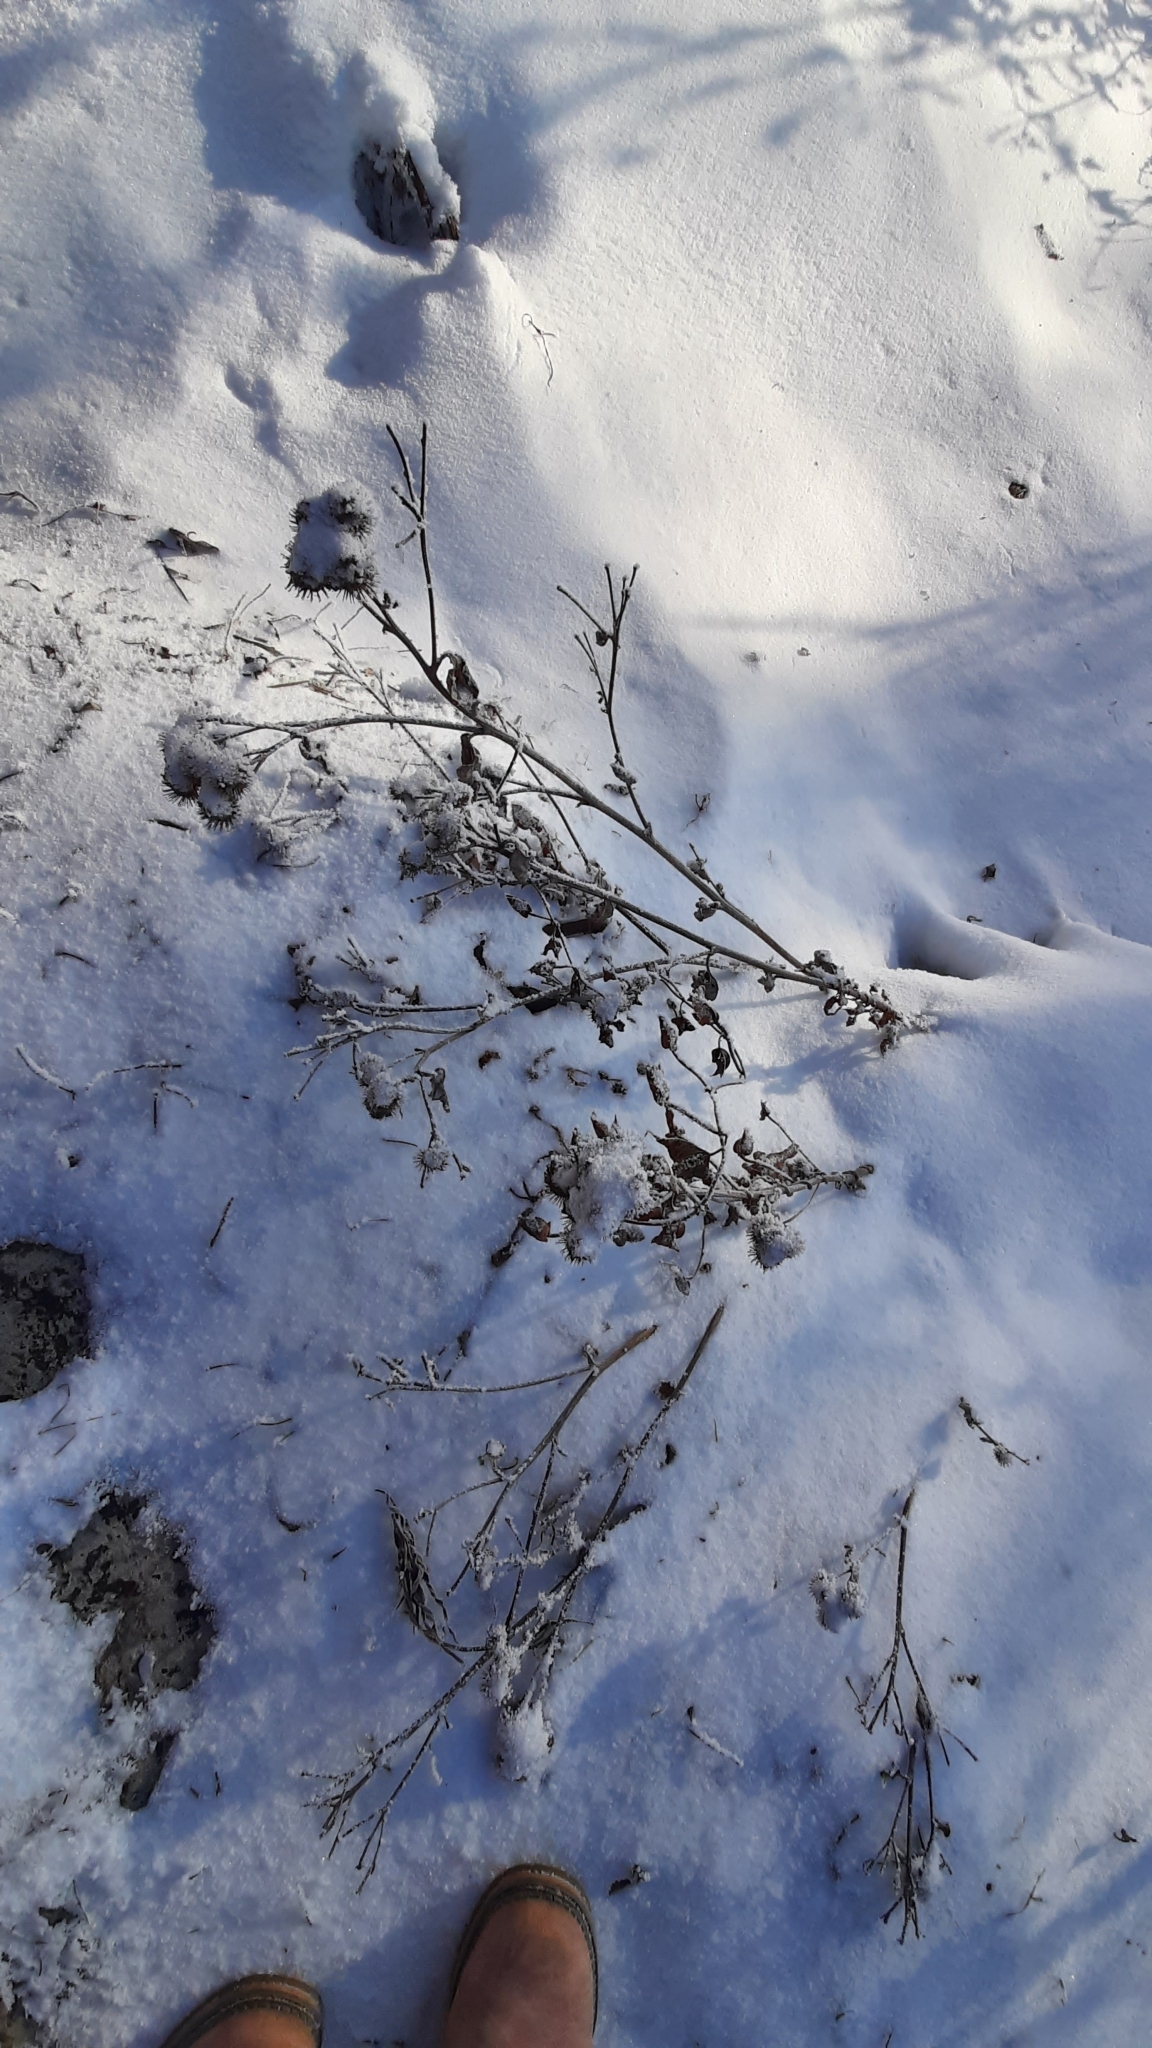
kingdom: Plantae
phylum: Tracheophyta
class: Magnoliopsida
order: Asterales
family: Asteraceae
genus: Arctium
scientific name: Arctium tomentosum
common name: Woolly burdock
